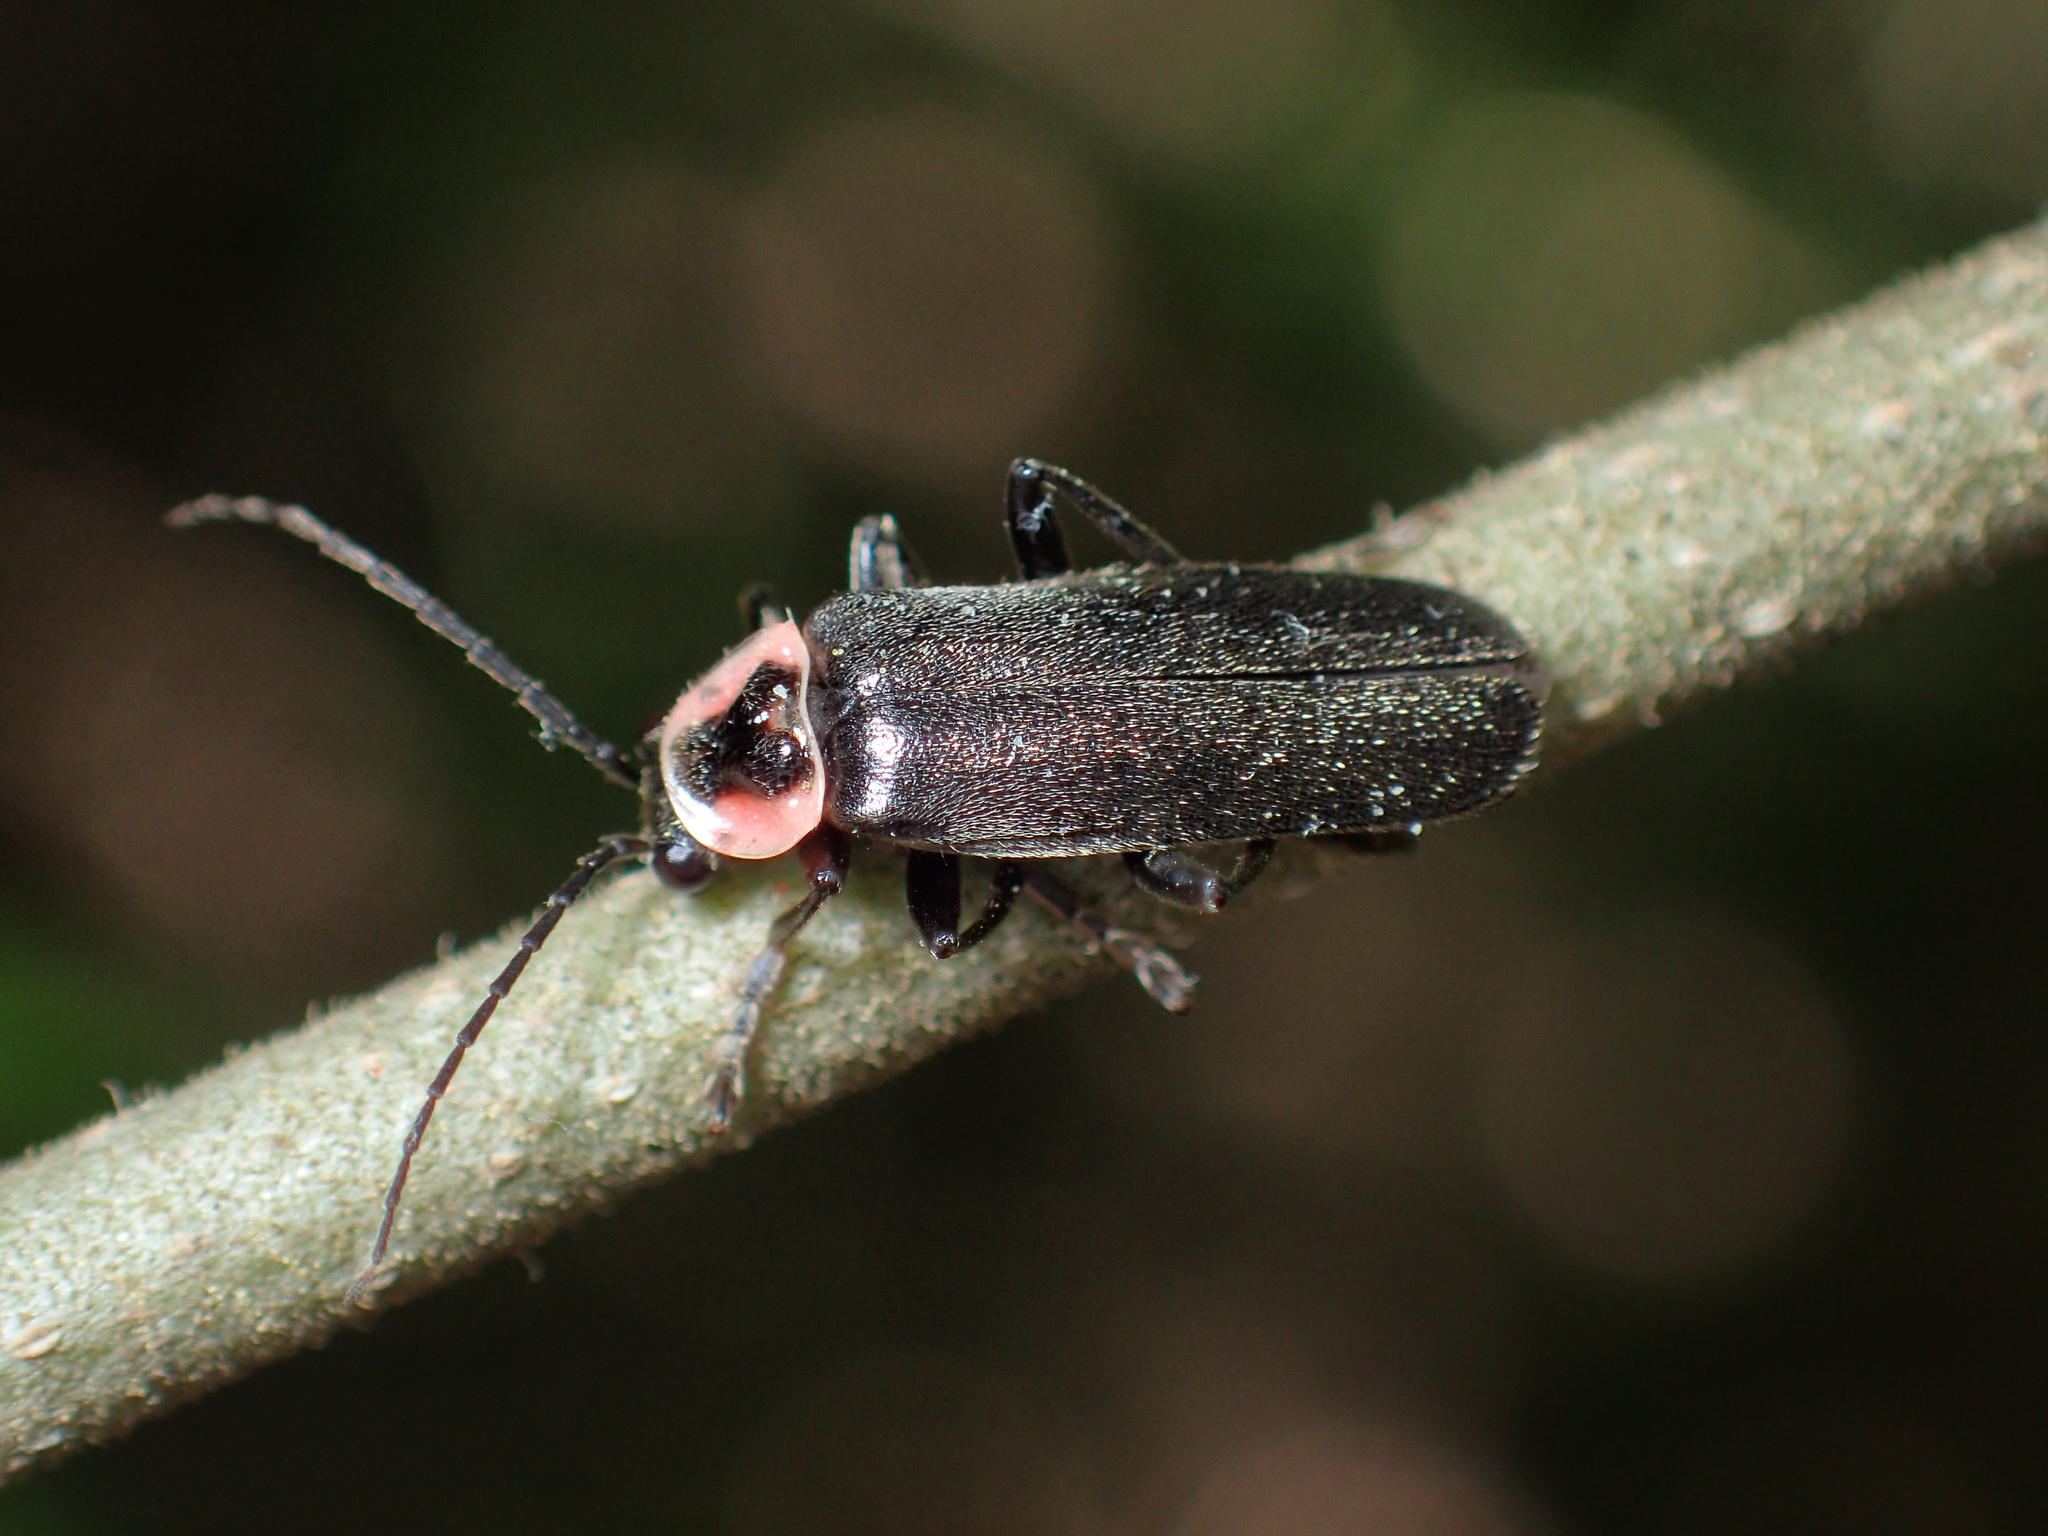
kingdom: Animalia
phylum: Arthropoda
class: Insecta
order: Coleoptera
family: Cantharidae
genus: Atalantycha
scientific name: Atalantycha neglecta
